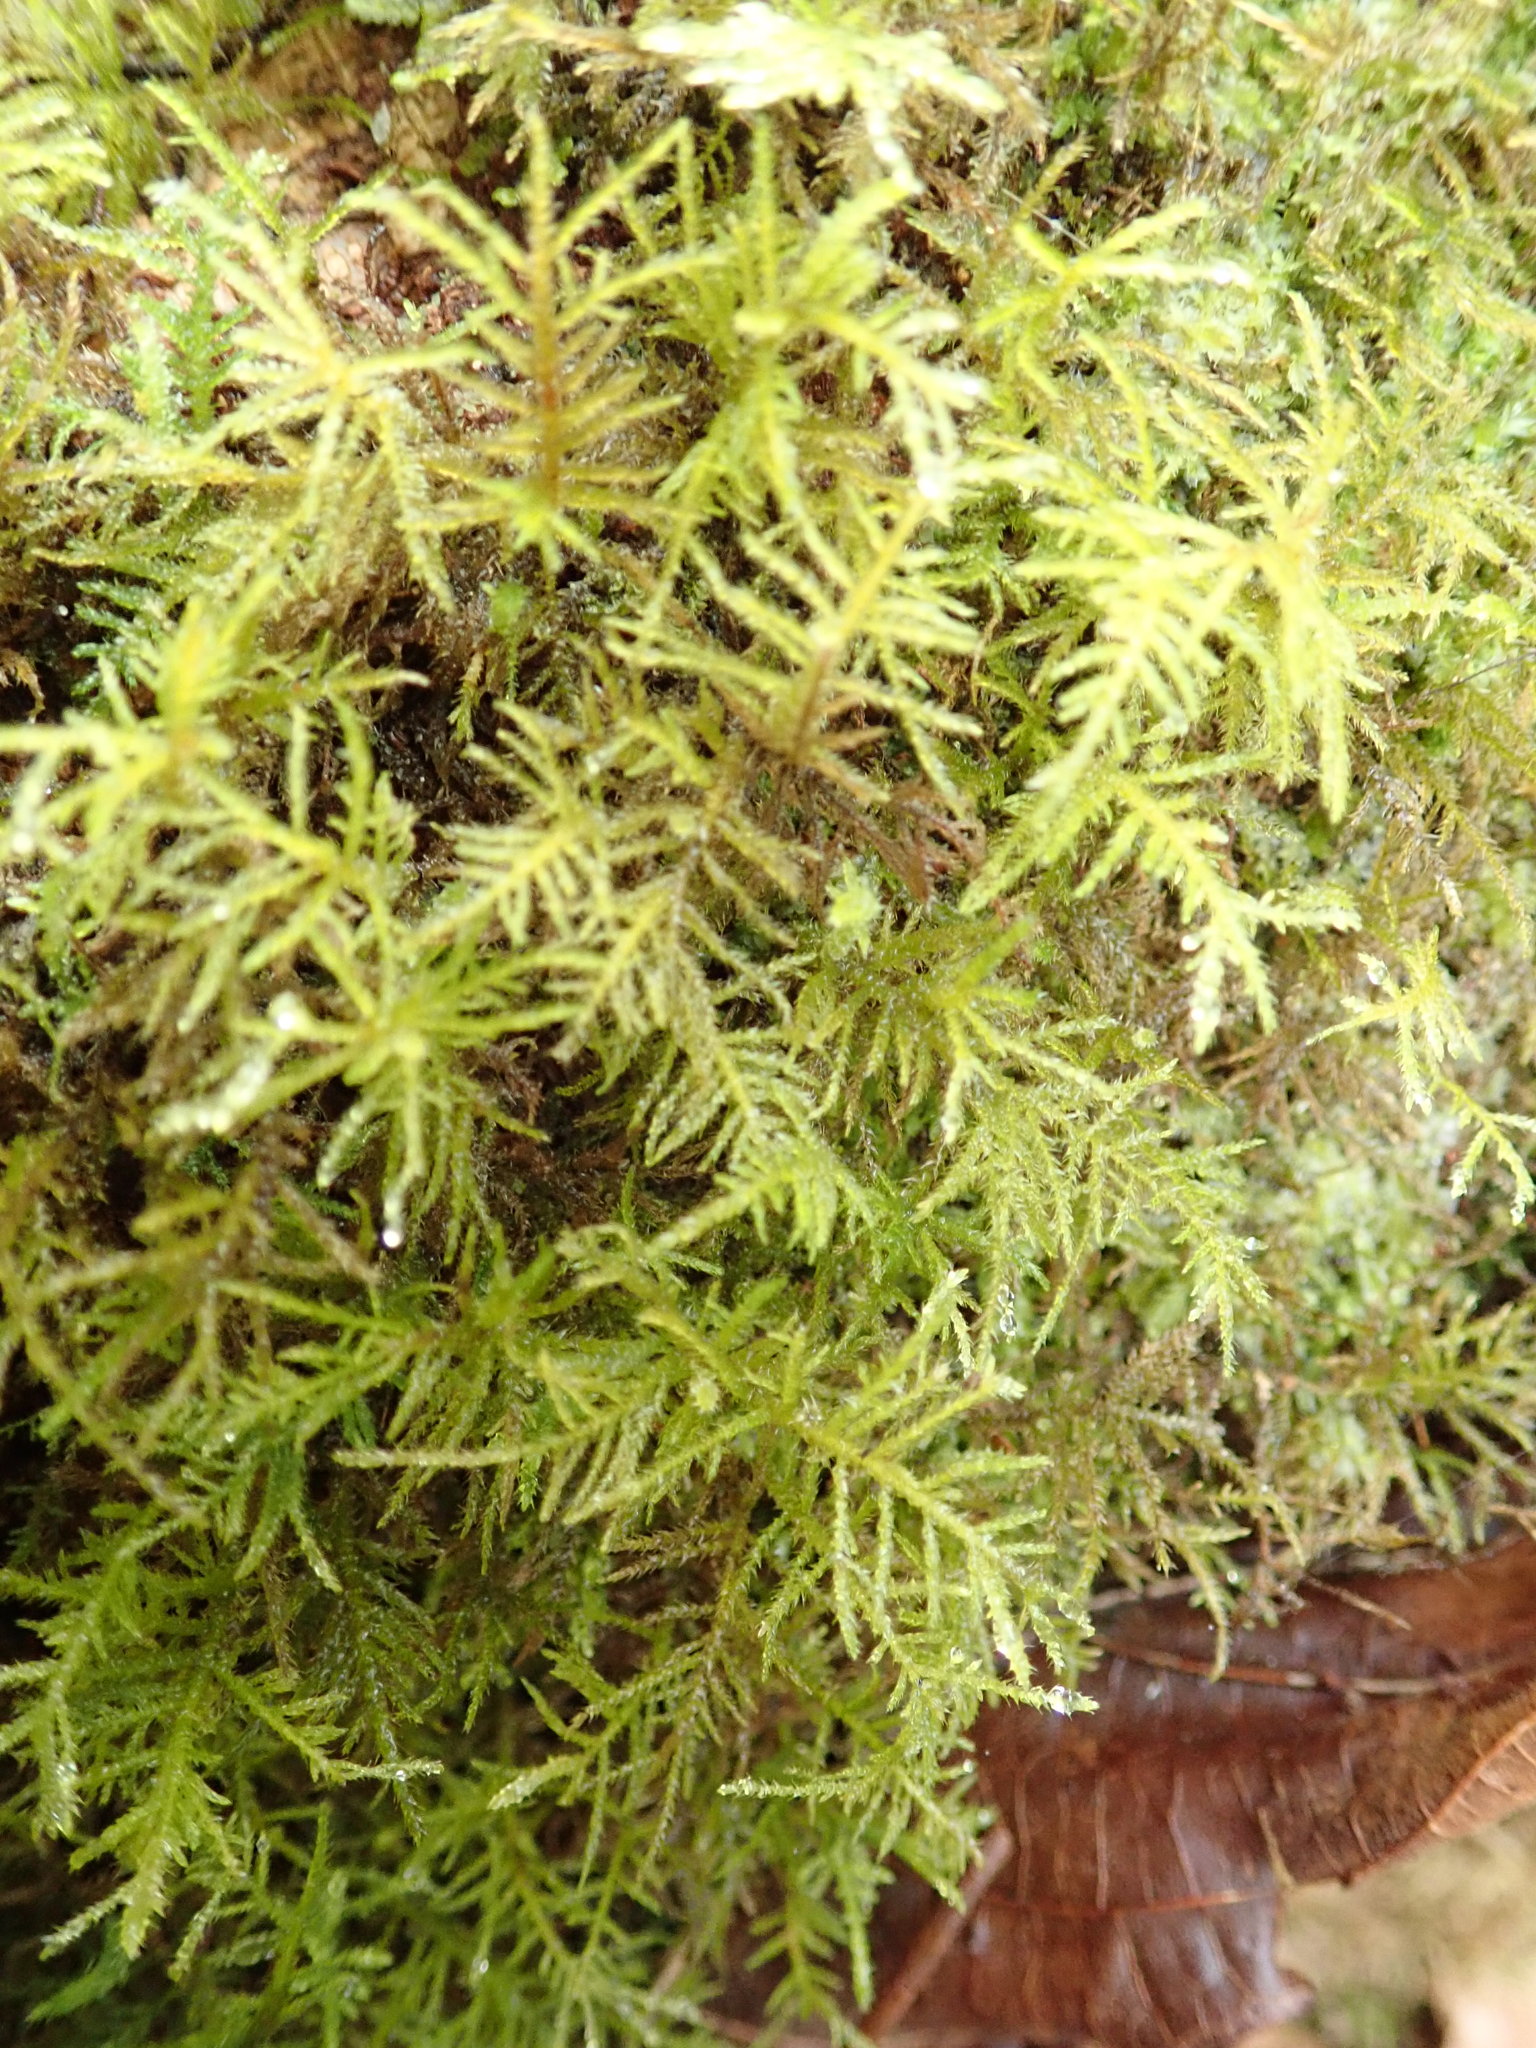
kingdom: Plantae
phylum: Bryophyta
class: Bryopsida
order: Hypnales
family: Brachytheciaceae
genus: Kindbergia
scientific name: Kindbergia praelonga
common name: Slender beaked moss
